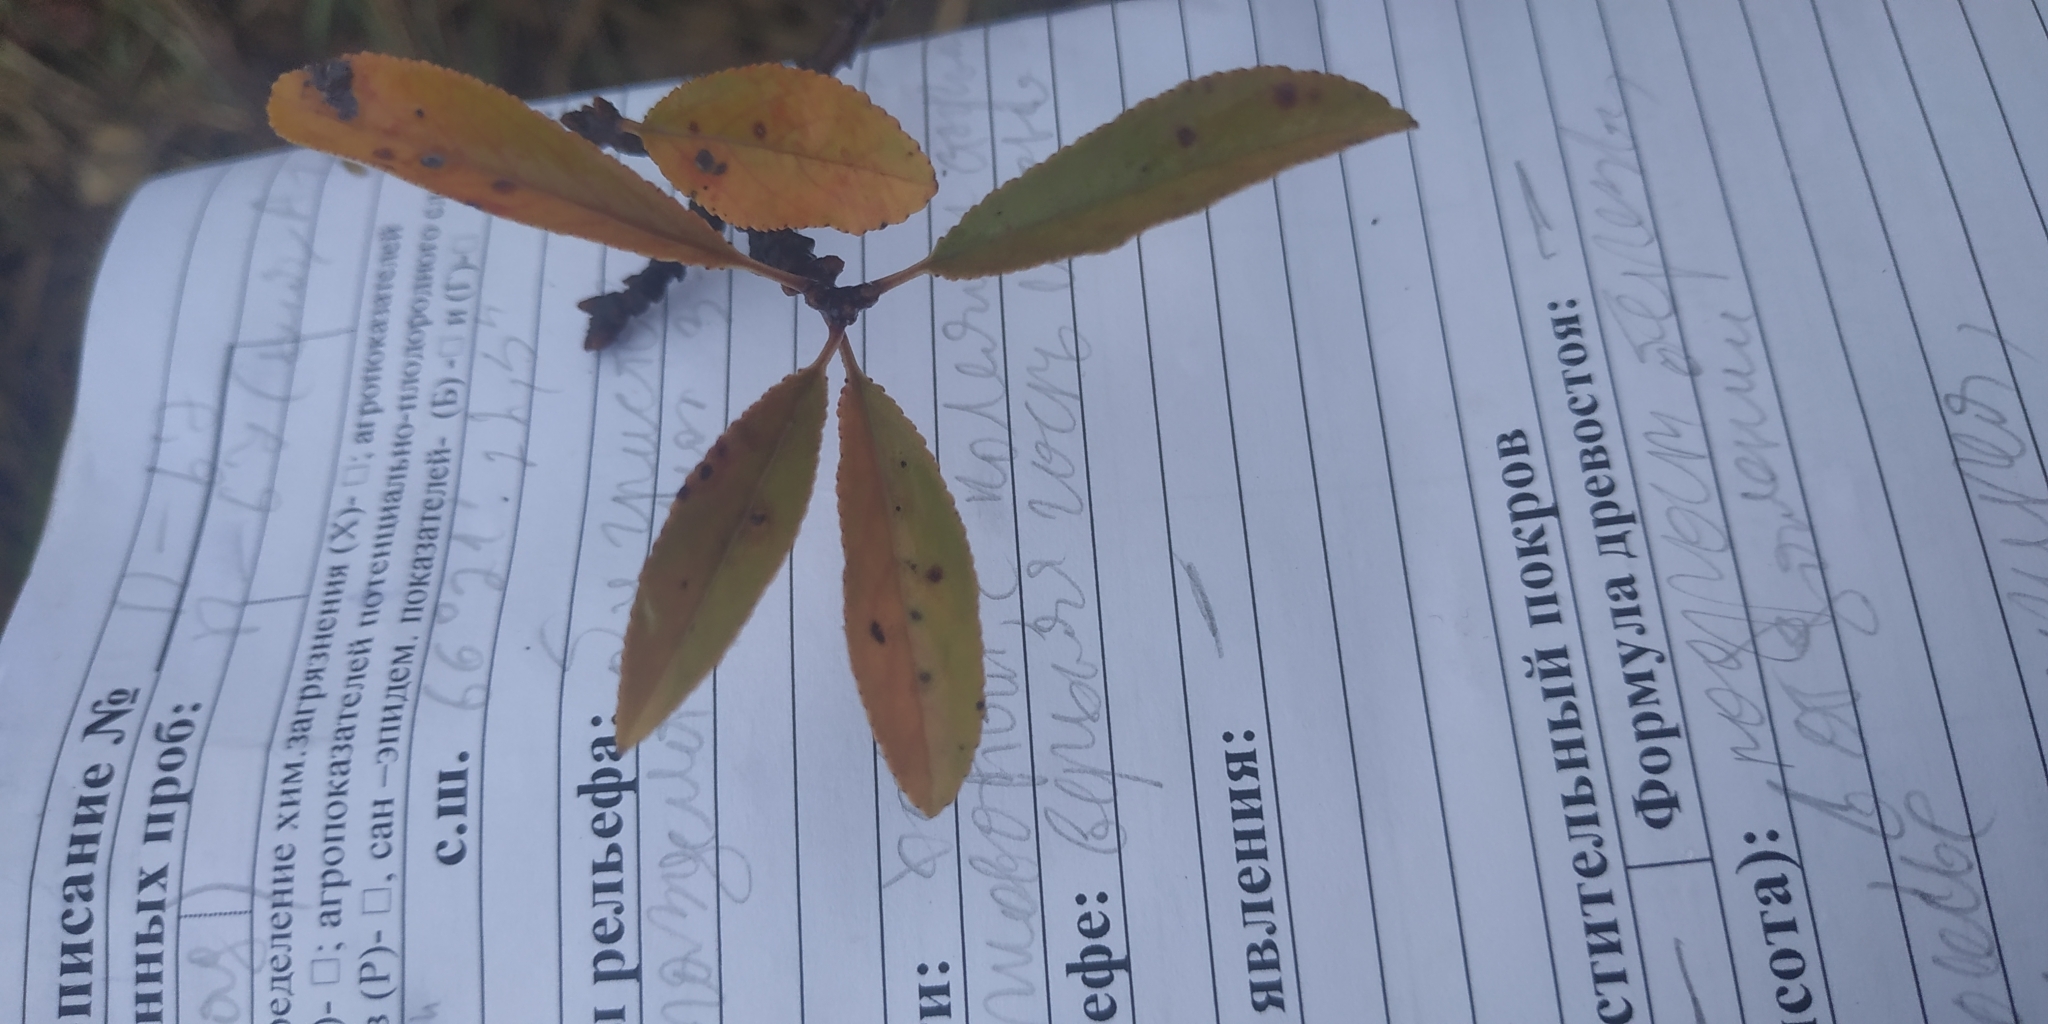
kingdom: Plantae
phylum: Tracheophyta
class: Magnoliopsida
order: Rosales
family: Rosaceae
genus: Prunus
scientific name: Prunus fruticosa
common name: European dwarf cherry
